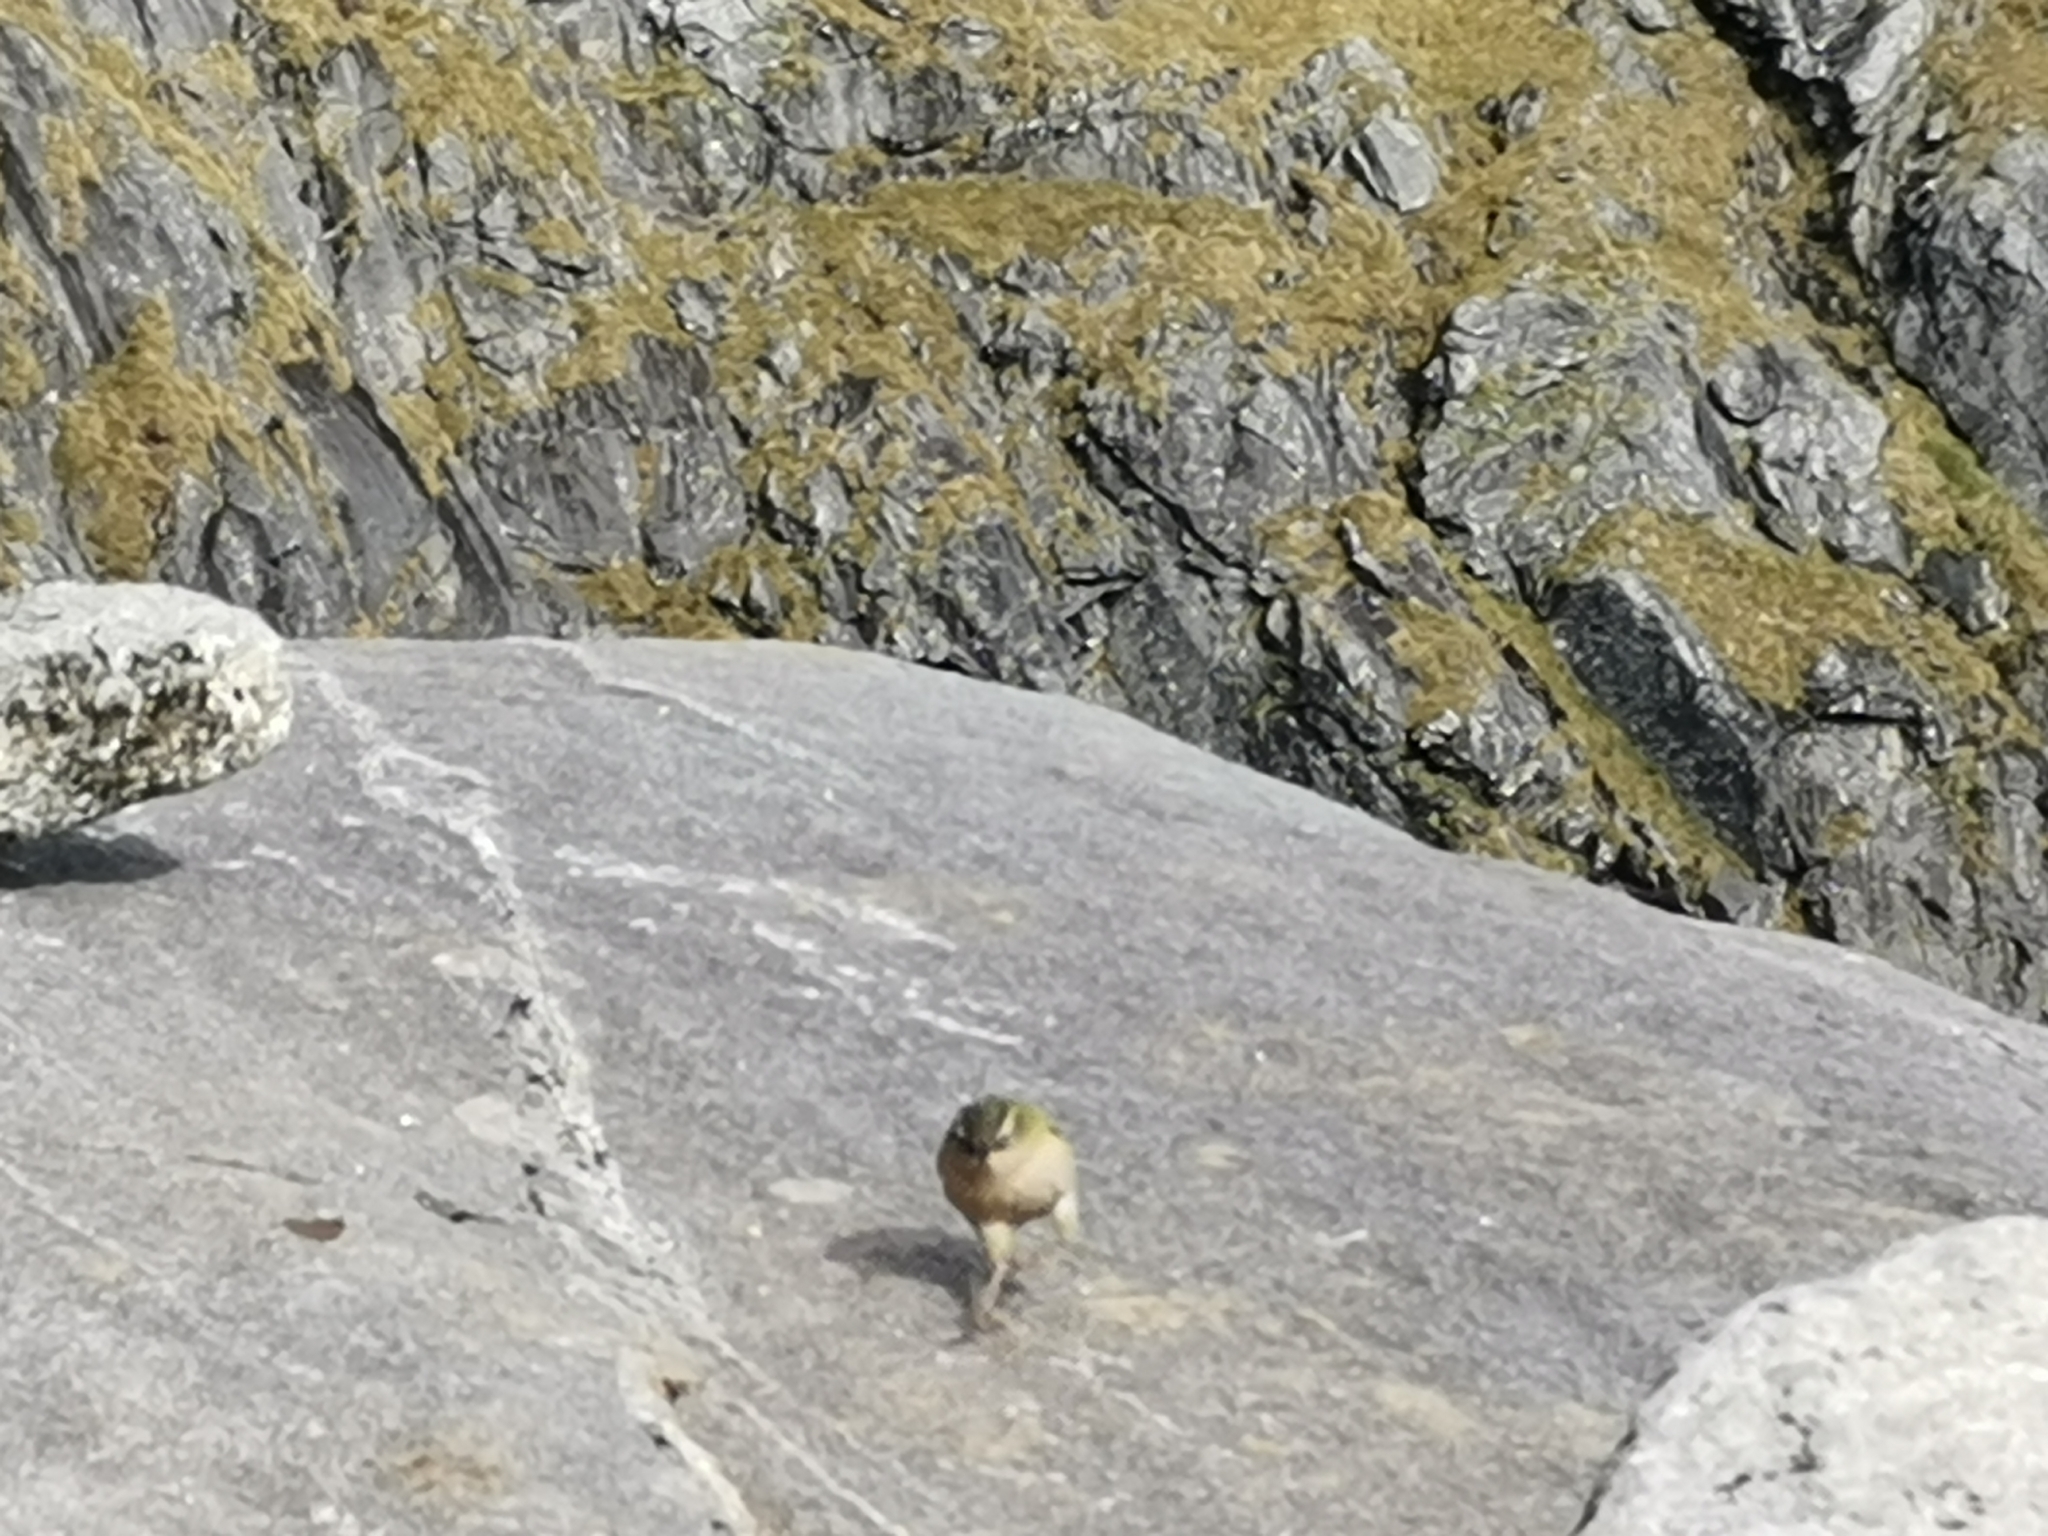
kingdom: Animalia
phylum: Chordata
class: Aves
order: Passeriformes
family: Acanthisittidae
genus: Xenicus
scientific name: Xenicus gilviventris
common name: New zealand rockwren
